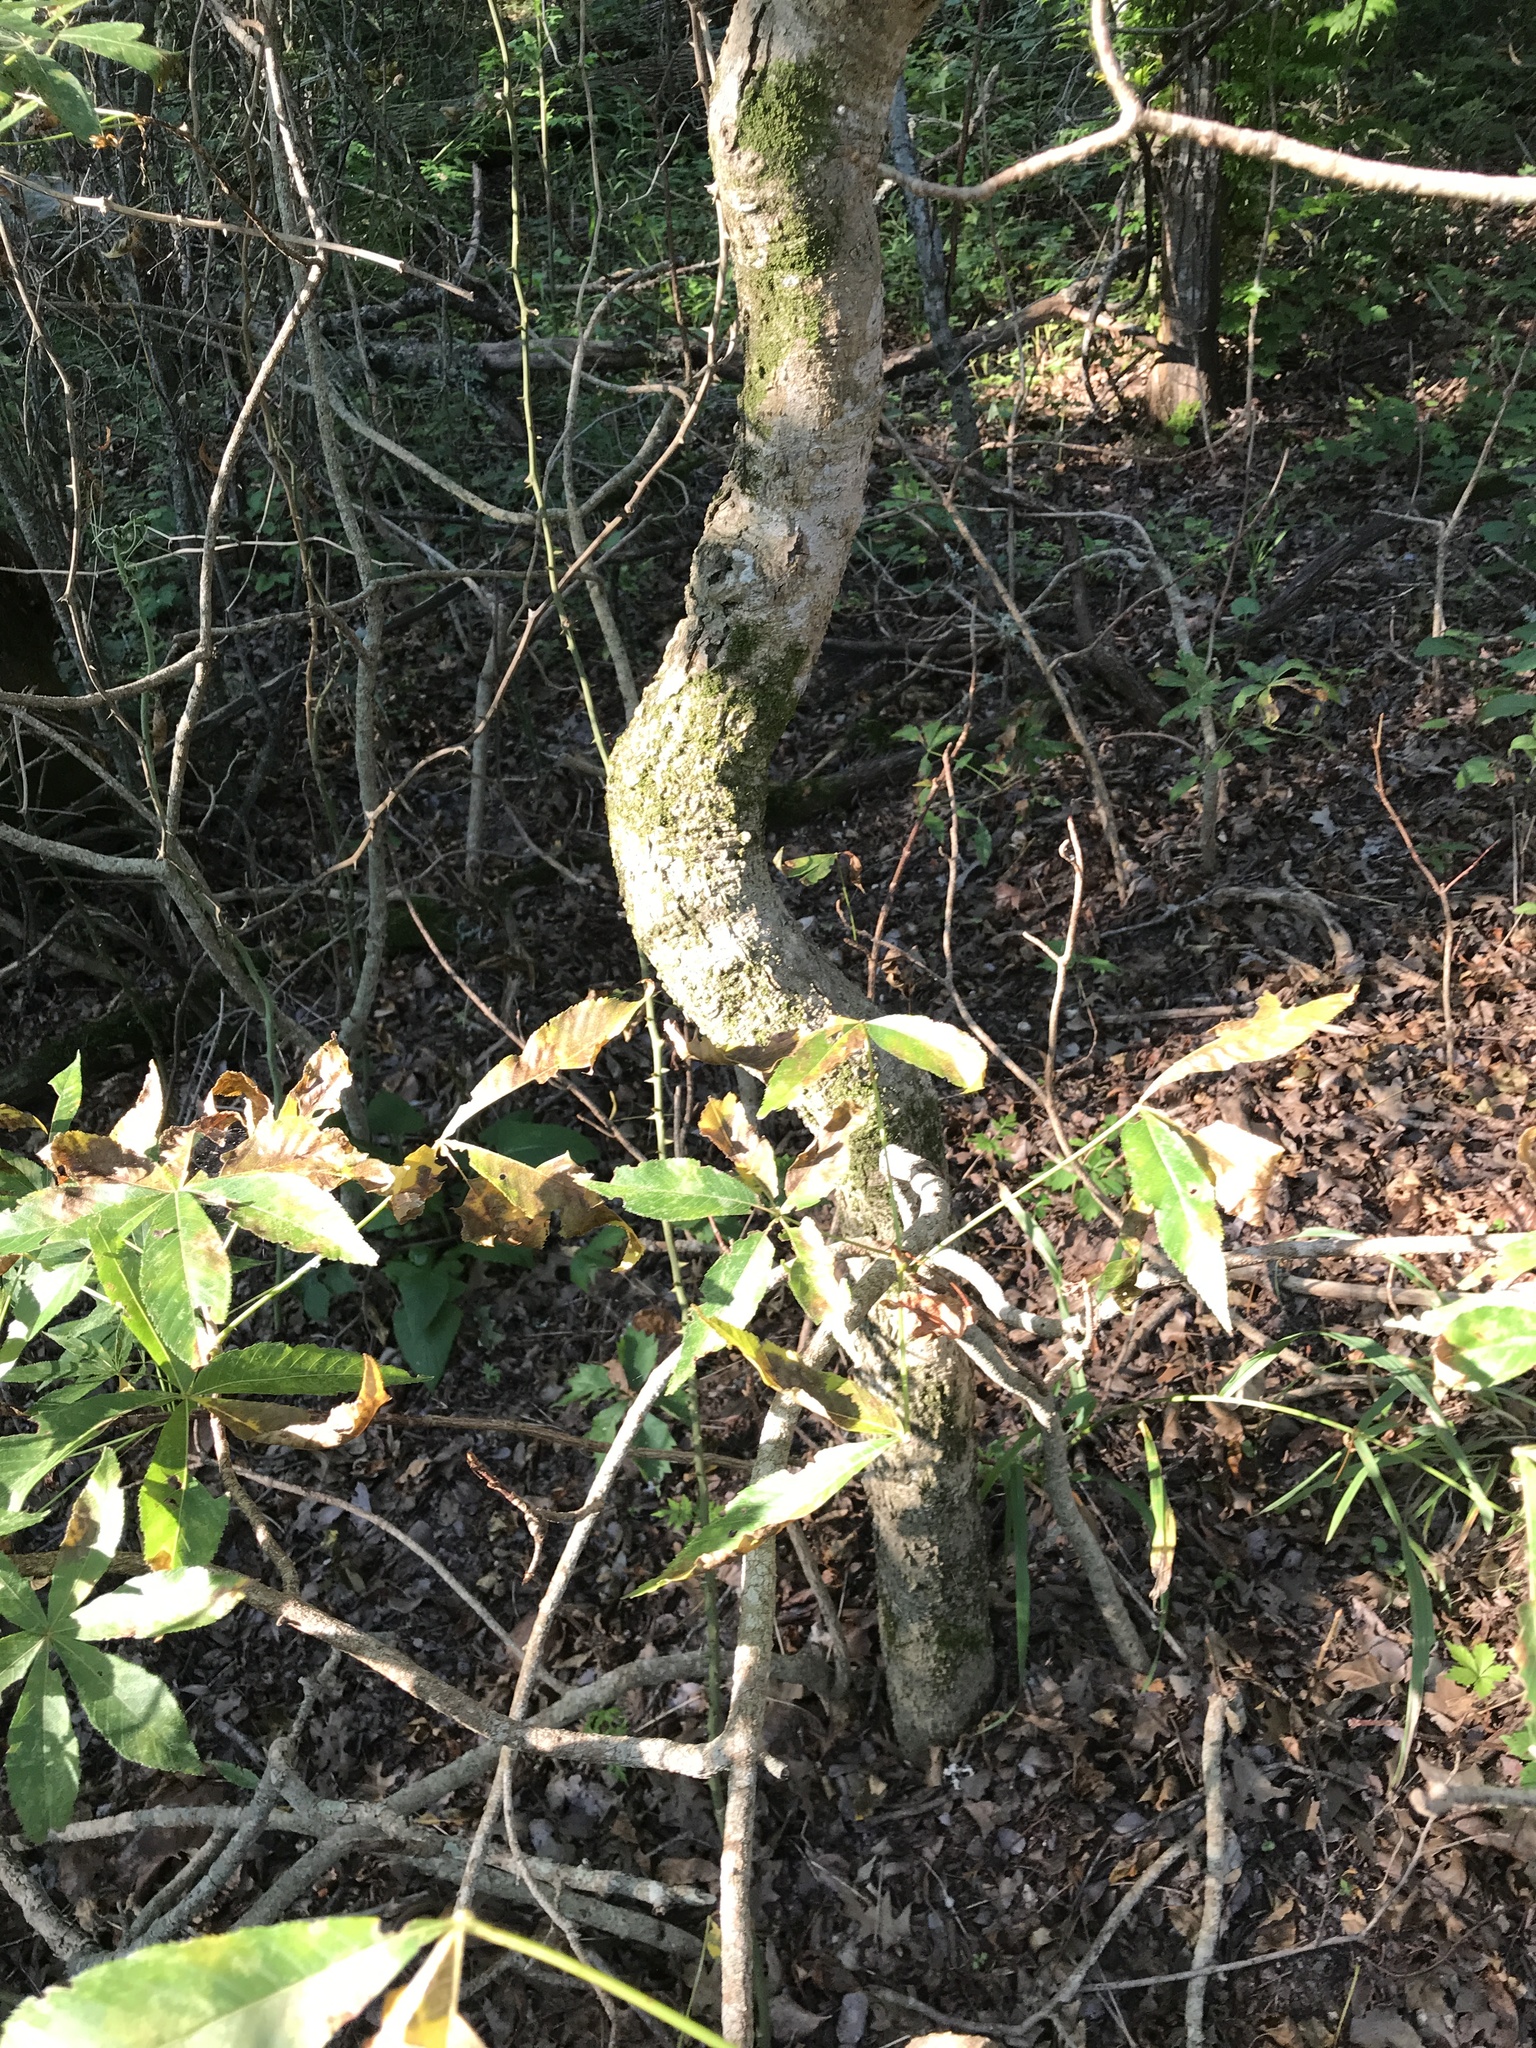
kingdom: Plantae
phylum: Tracheophyta
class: Magnoliopsida
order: Sapindales
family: Sapindaceae
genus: Aesculus
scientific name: Aesculus glabra
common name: Ohio buckeye
